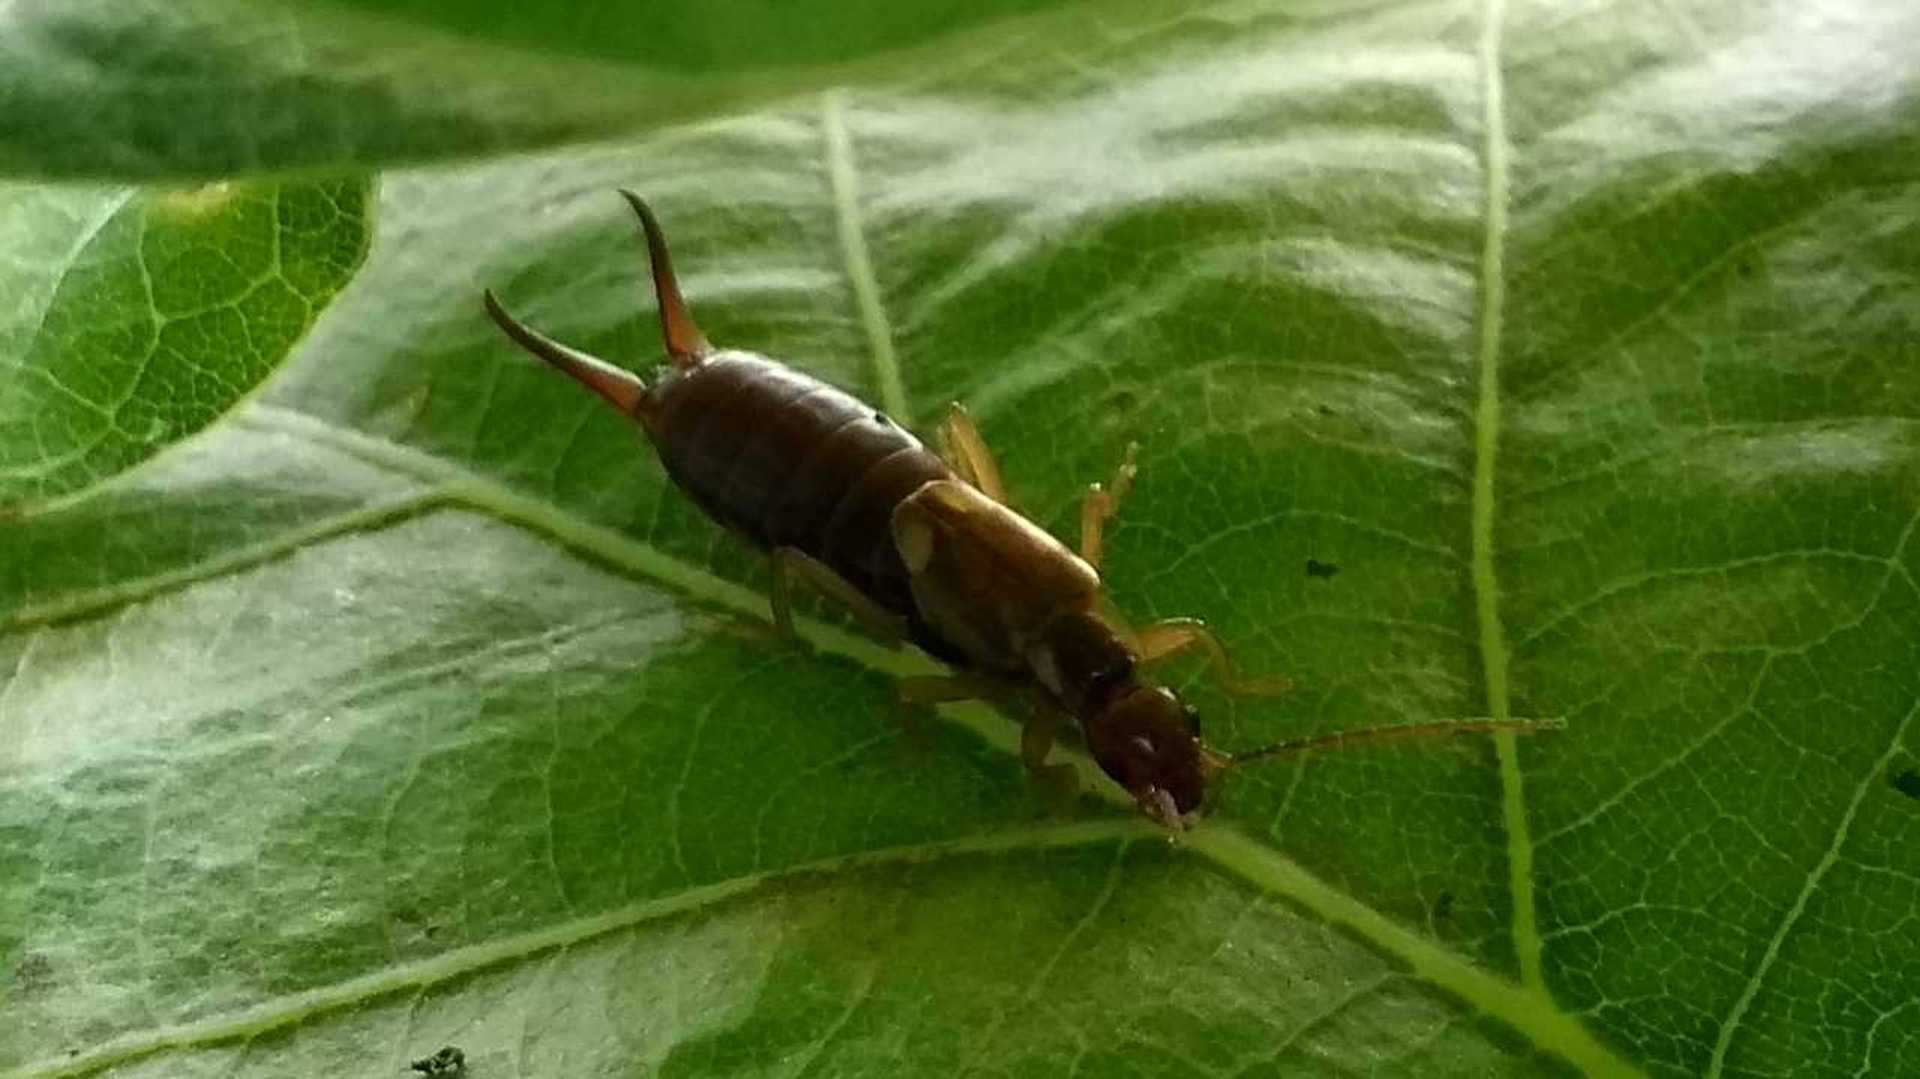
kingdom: Animalia
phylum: Arthropoda
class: Insecta
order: Dermaptera
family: Forficulidae
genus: Forficula
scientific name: Forficula
